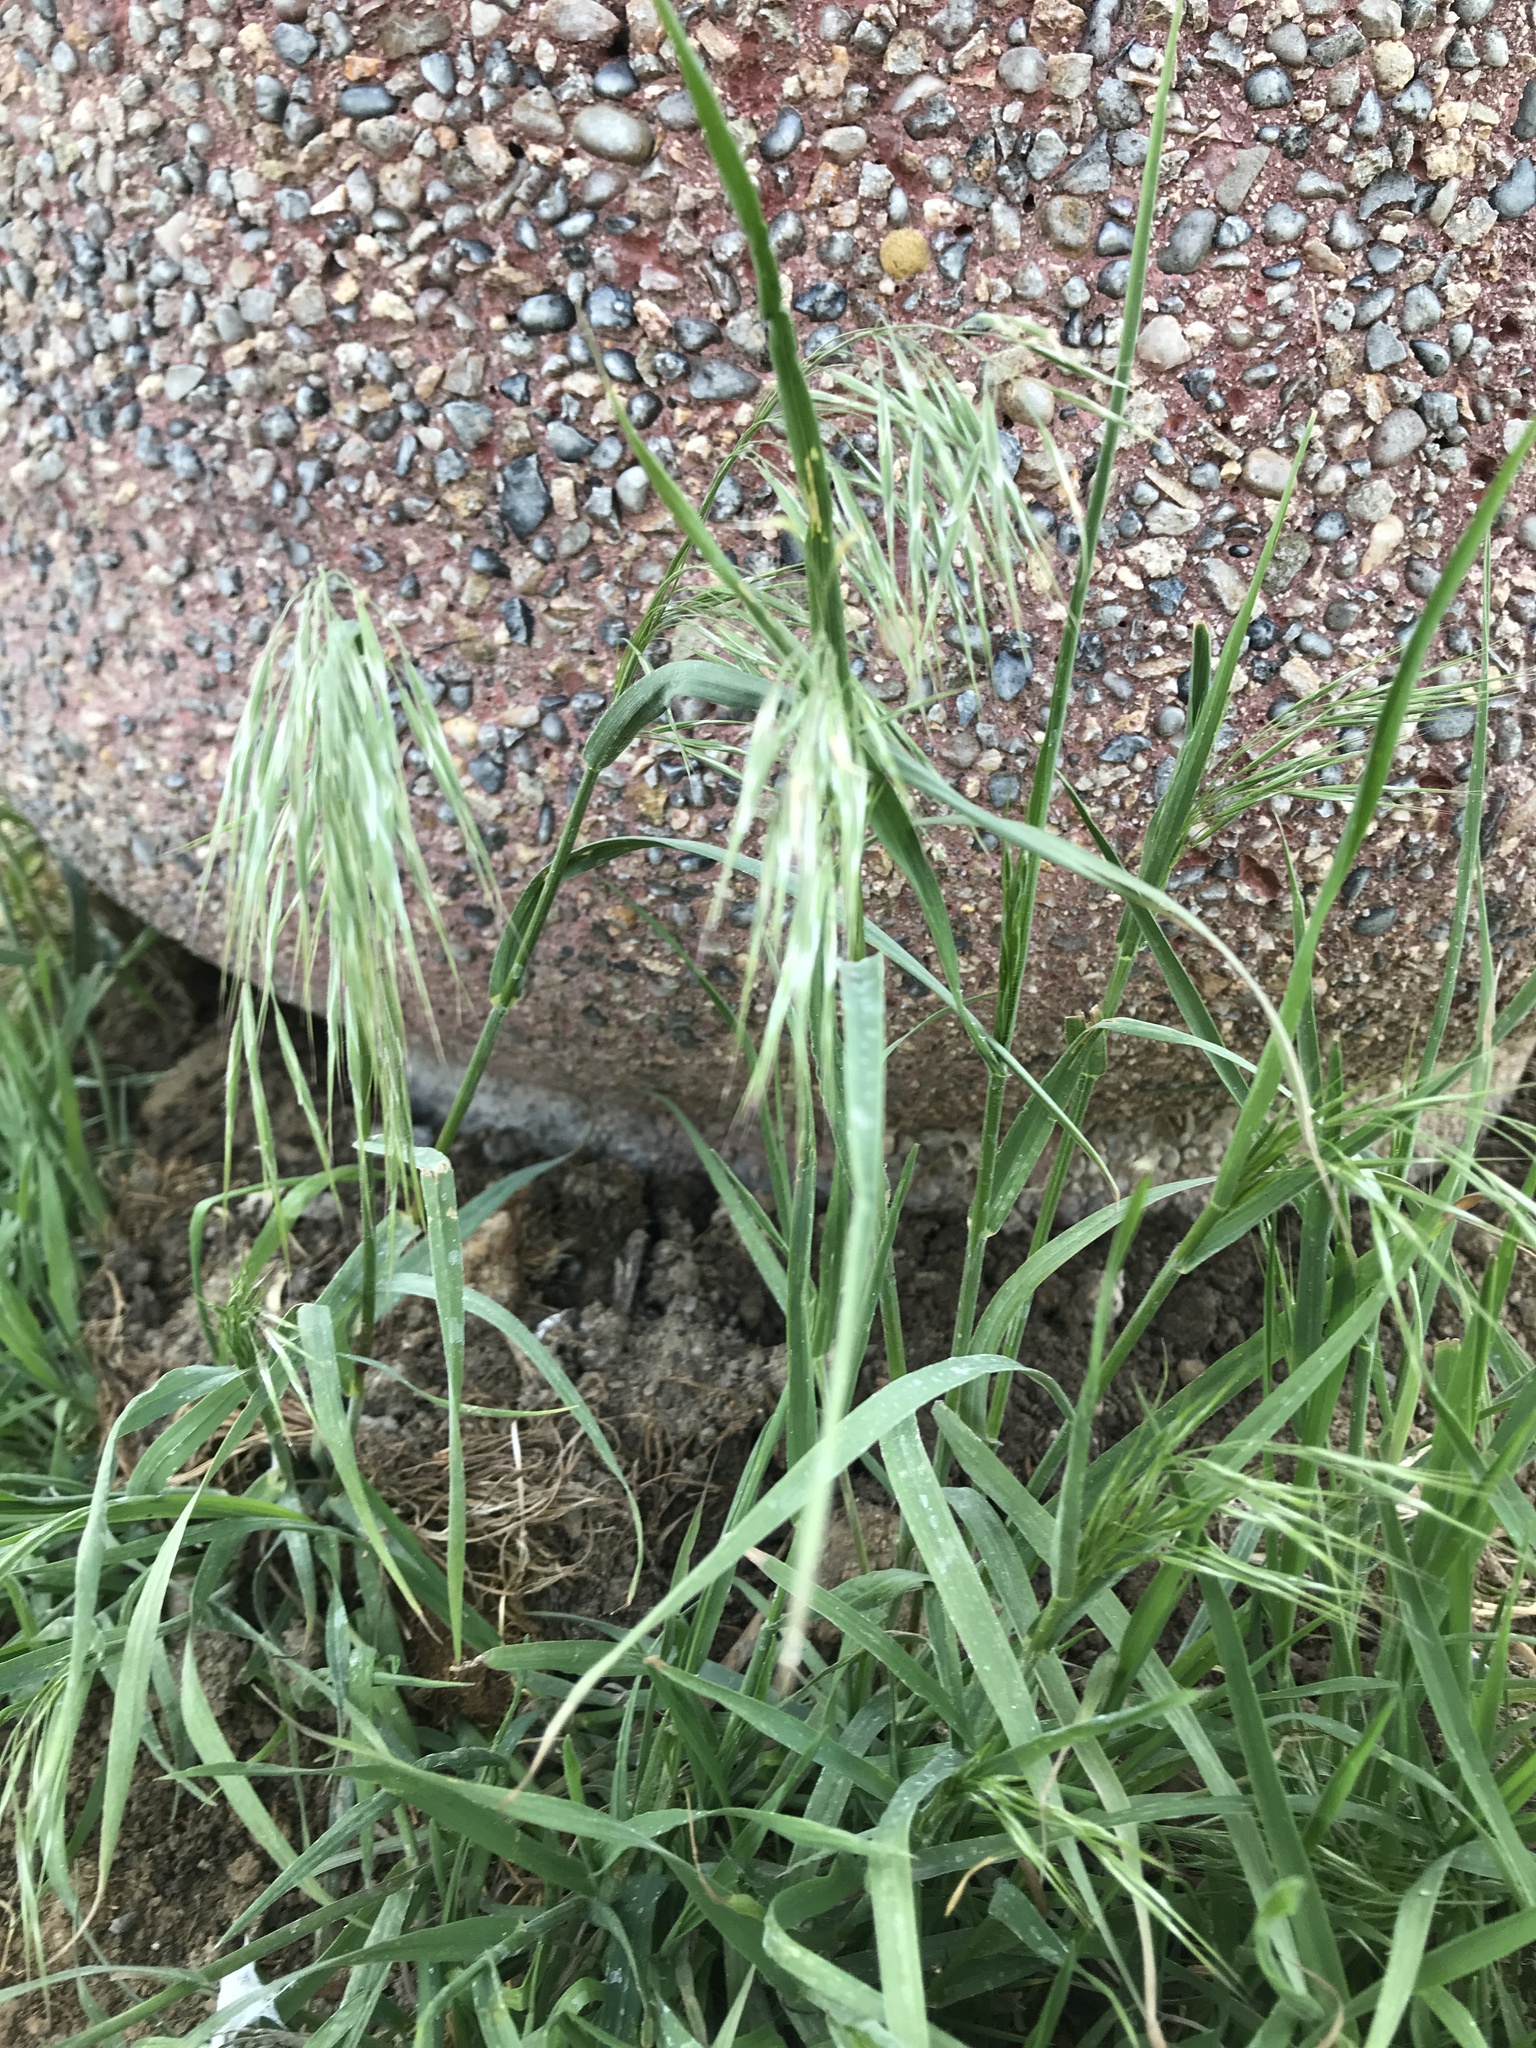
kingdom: Plantae
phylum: Tracheophyta
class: Liliopsida
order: Poales
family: Poaceae
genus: Bromus
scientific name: Bromus tectorum
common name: Cheatgrass
